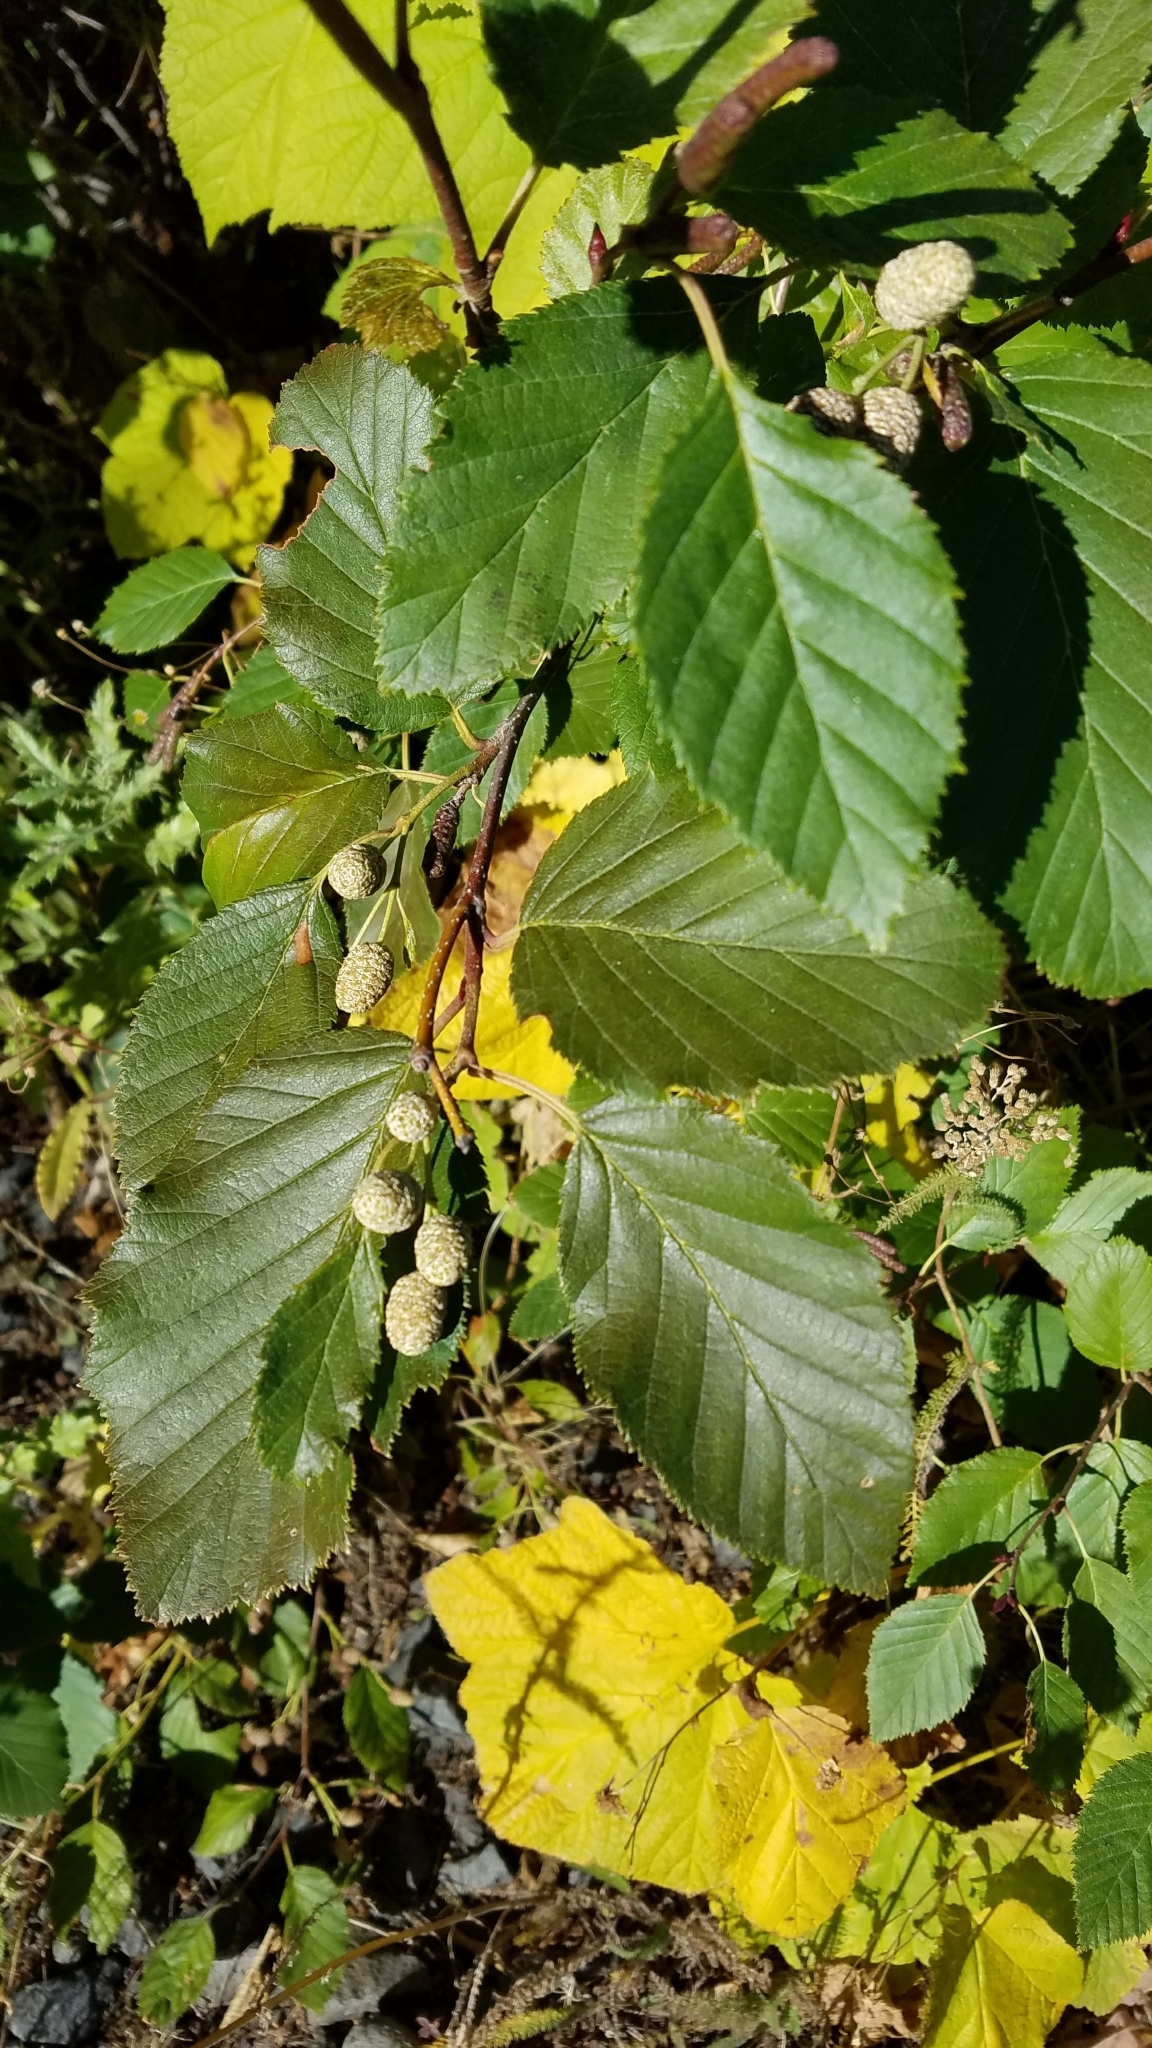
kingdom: Plantae
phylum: Tracheophyta
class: Magnoliopsida
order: Fagales
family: Betulaceae
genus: Alnus
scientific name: Alnus alnobetula
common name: Green alder
